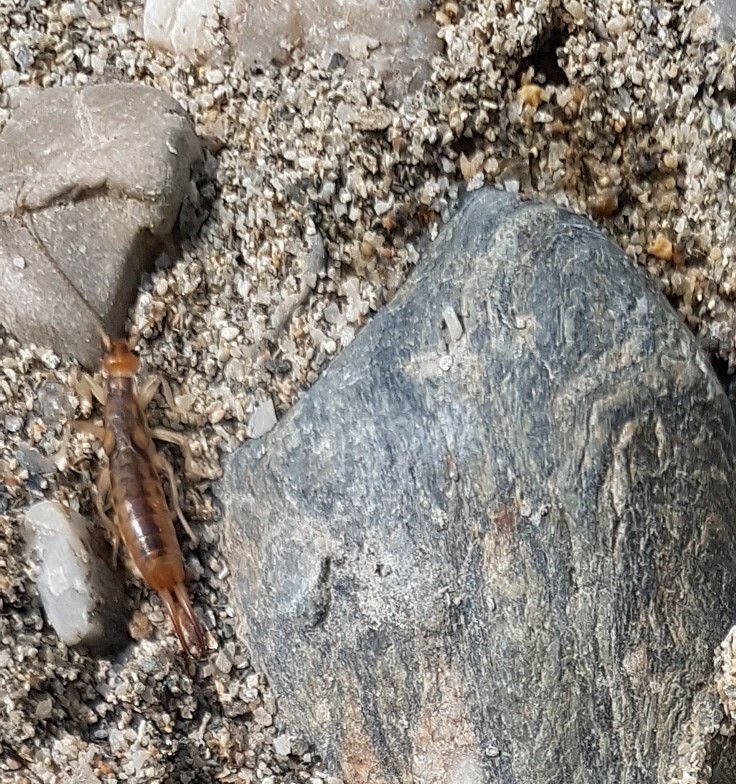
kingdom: Animalia
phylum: Arthropoda
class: Insecta
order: Dermaptera
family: Labiduridae
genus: Labidura
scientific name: Labidura riparia
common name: Striped earwig
